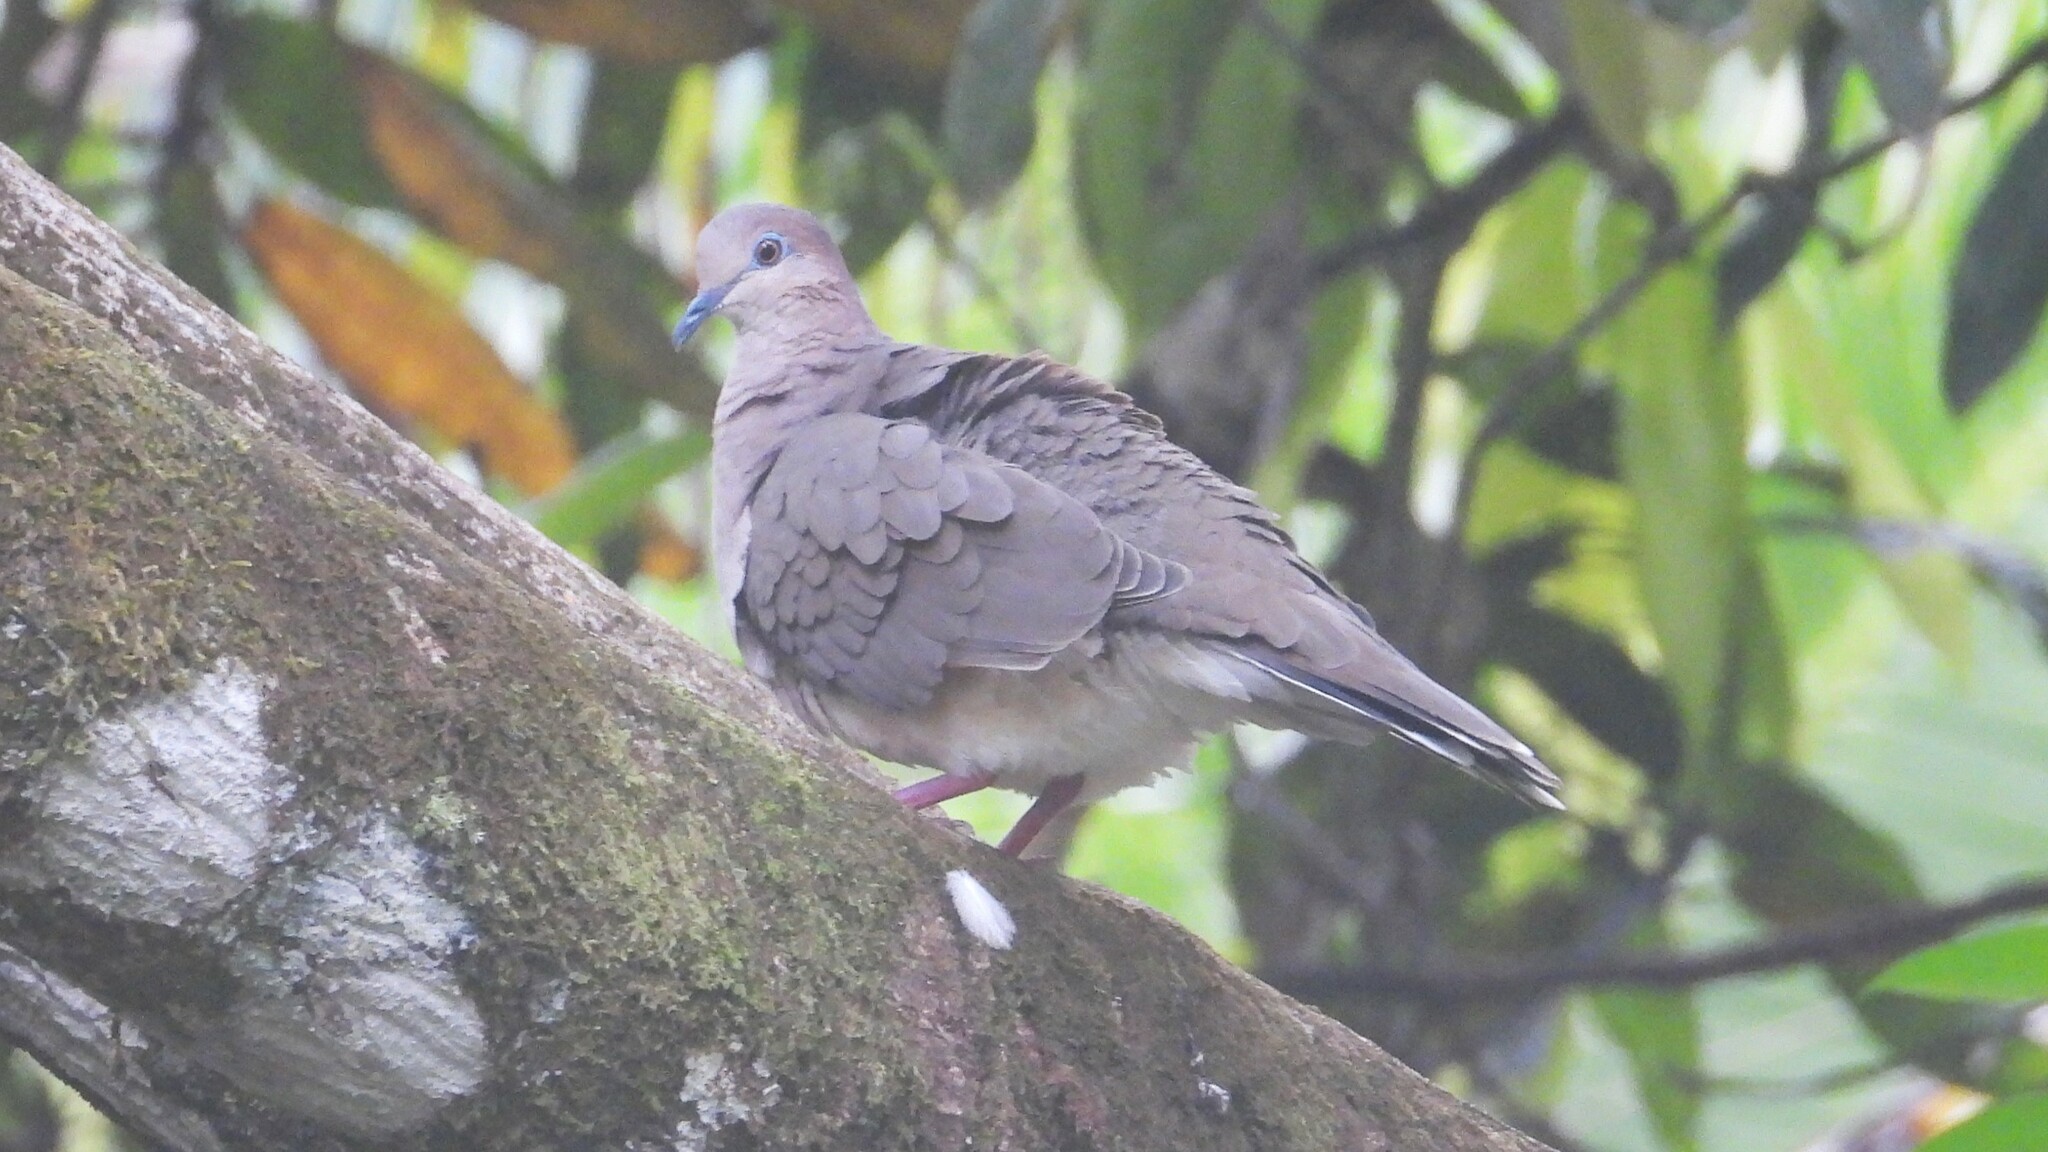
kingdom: Animalia
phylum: Chordata
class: Aves
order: Columbiformes
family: Columbidae
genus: Leptotila
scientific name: Leptotila verreauxi
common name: White-tipped dove
